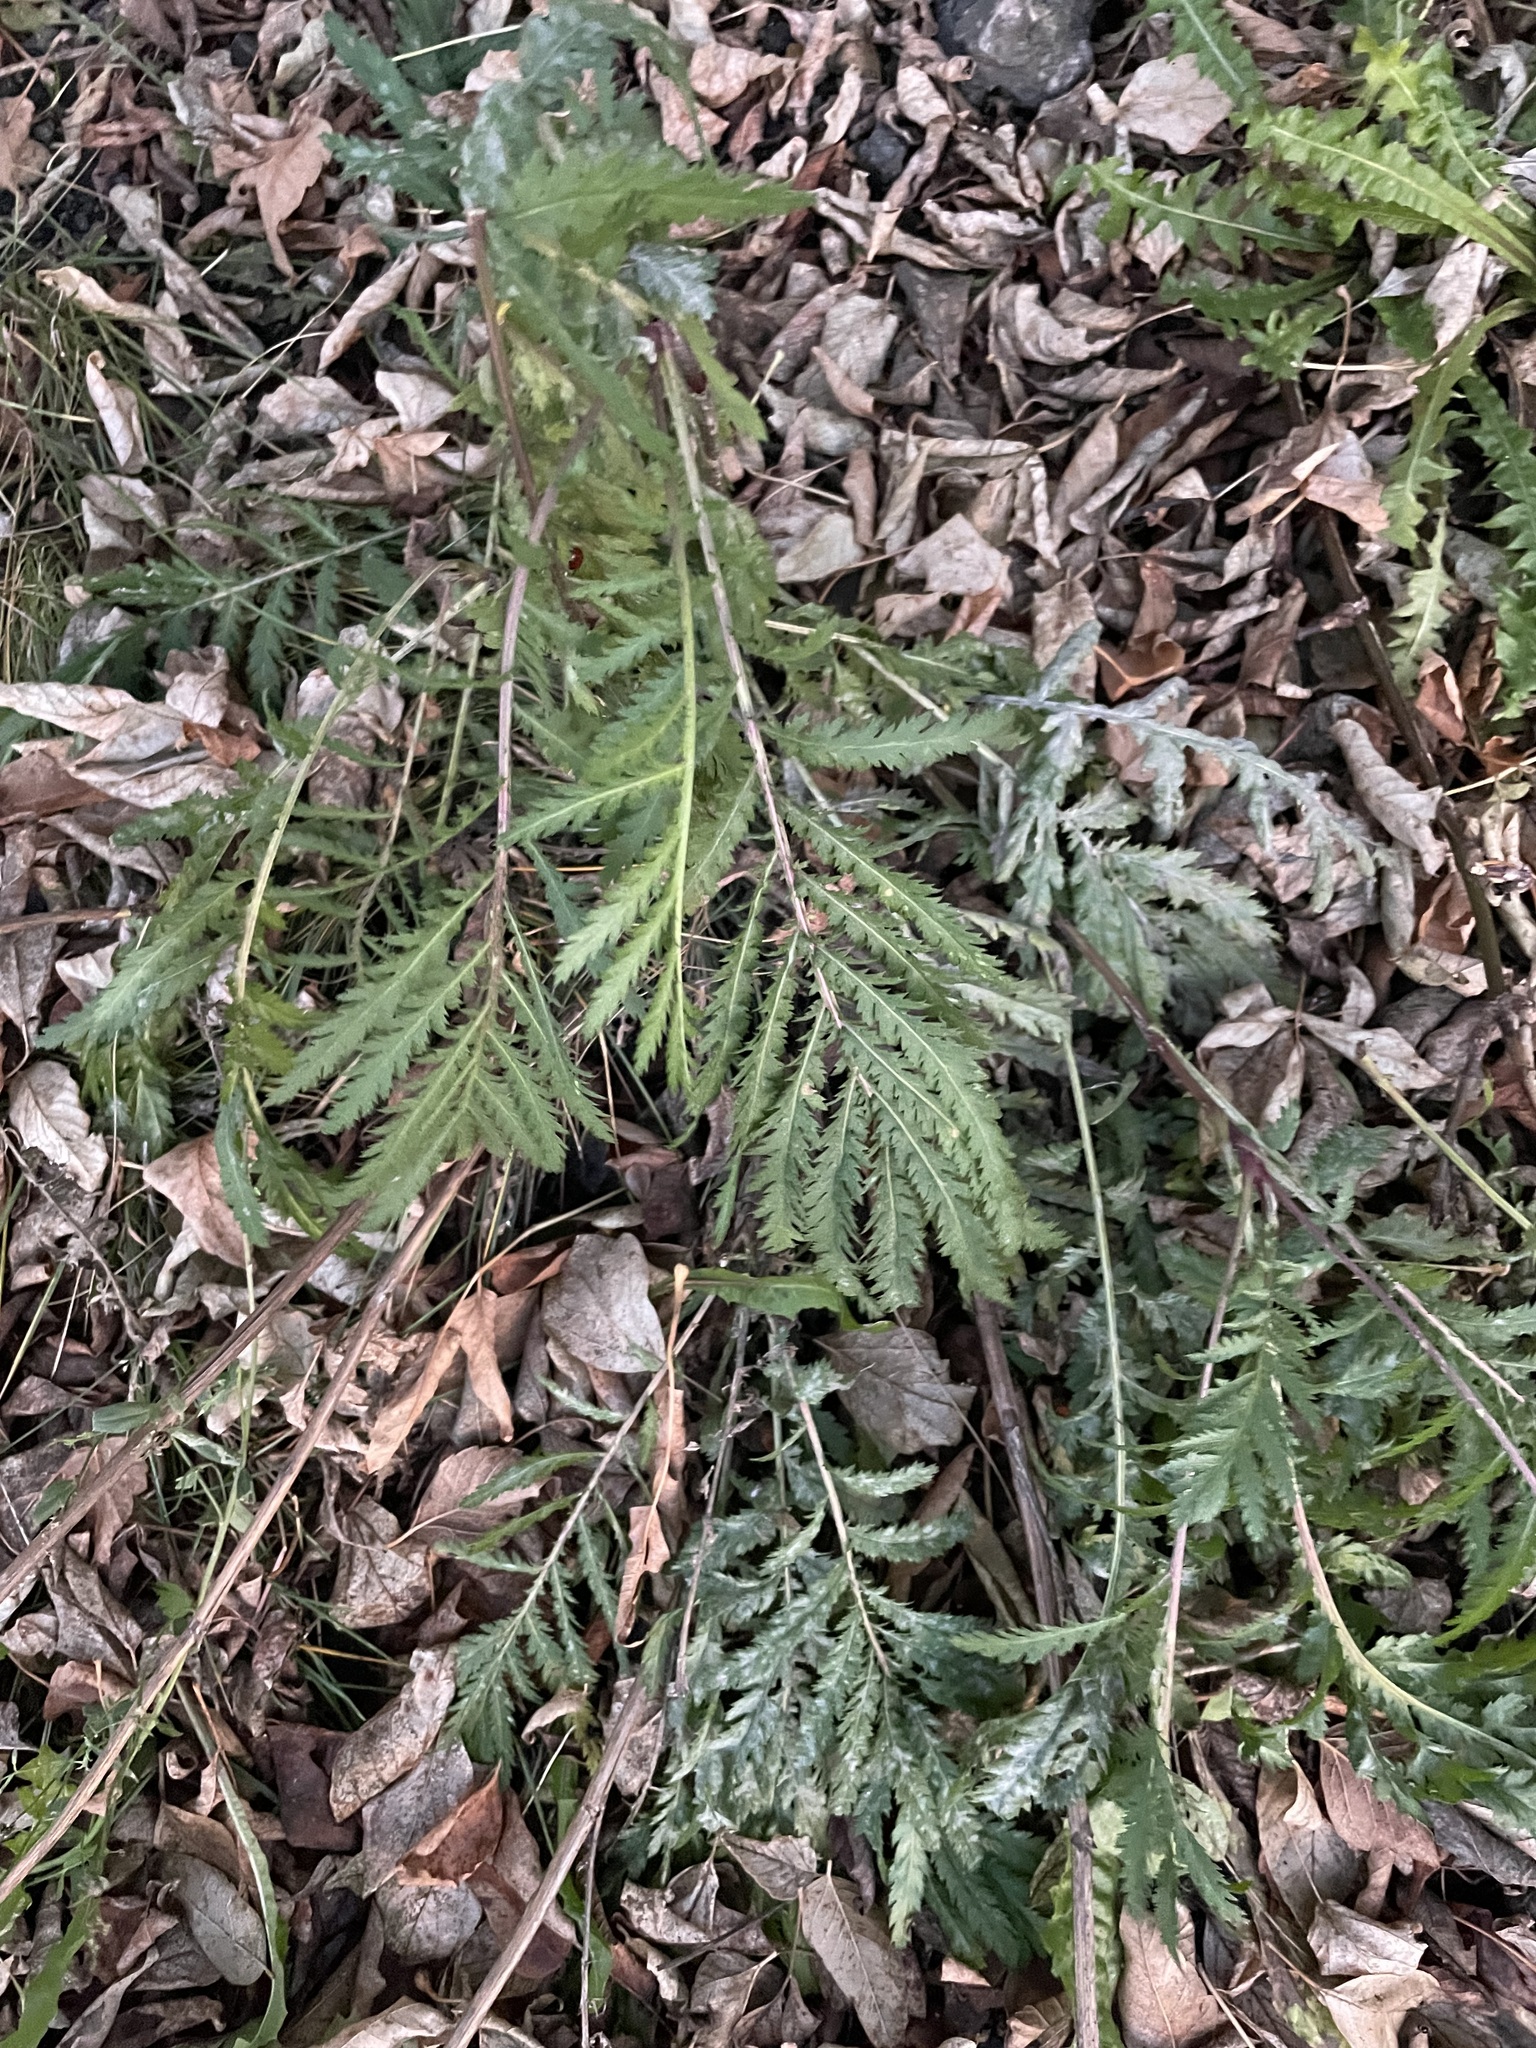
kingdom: Plantae
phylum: Tracheophyta
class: Magnoliopsida
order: Asterales
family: Asteraceae
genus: Tanacetum
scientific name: Tanacetum vulgare
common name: Common tansy
